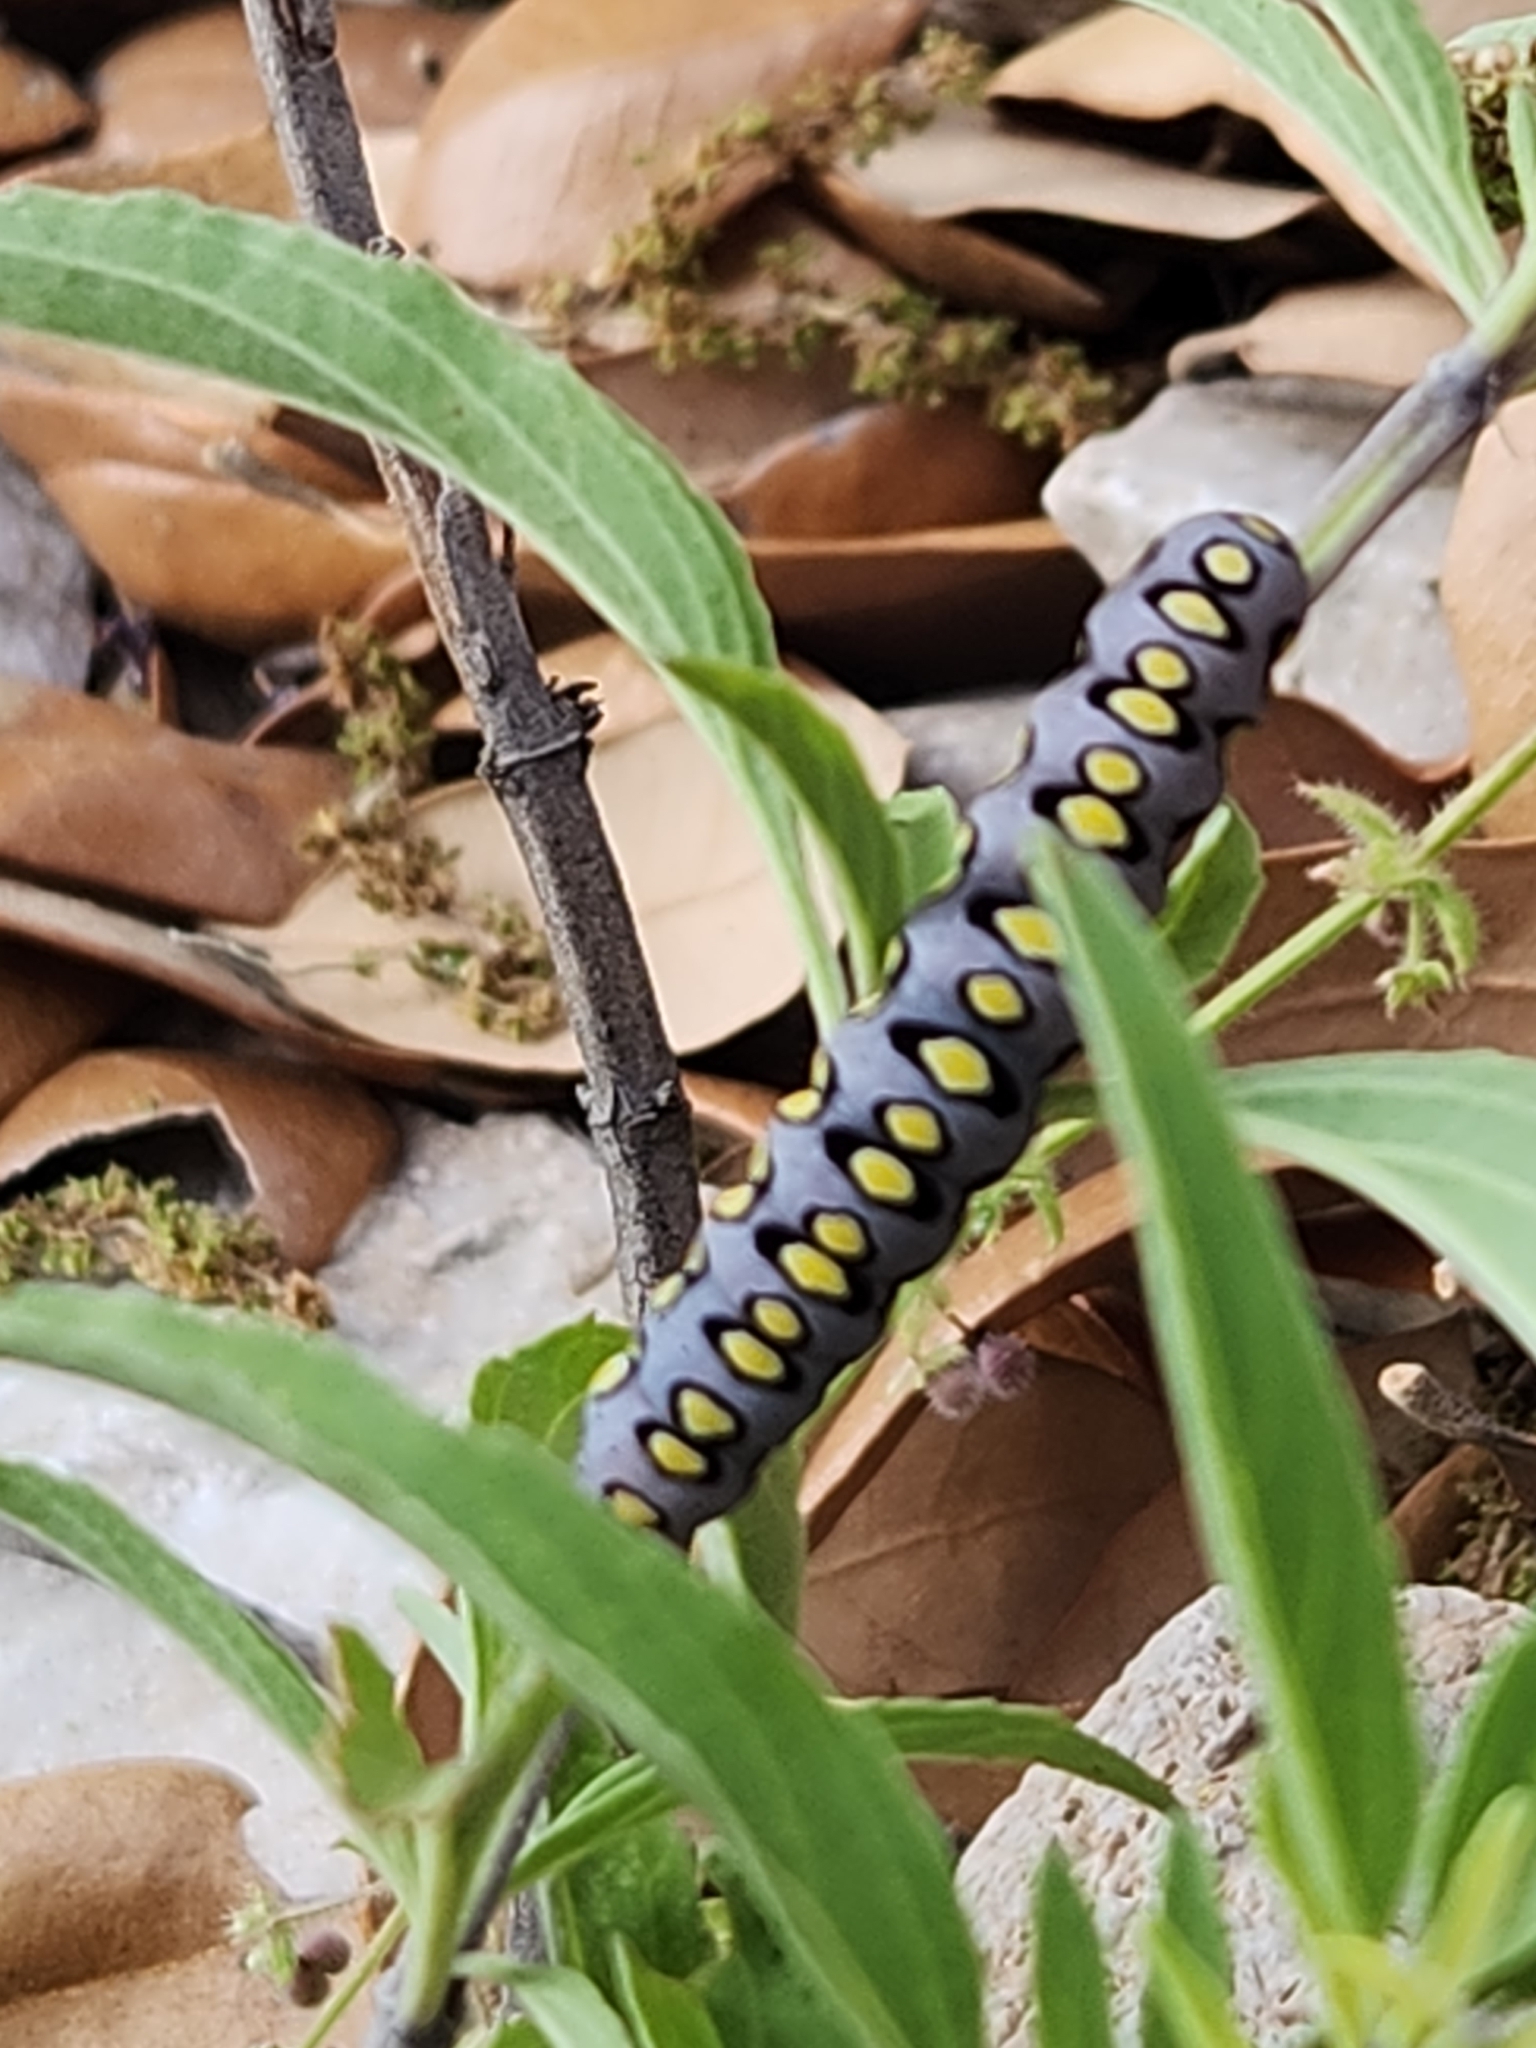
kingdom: Animalia
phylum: Arthropoda
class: Insecta
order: Lepidoptera
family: Noctuidae
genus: Sympistis
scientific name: Sympistis sorapis
